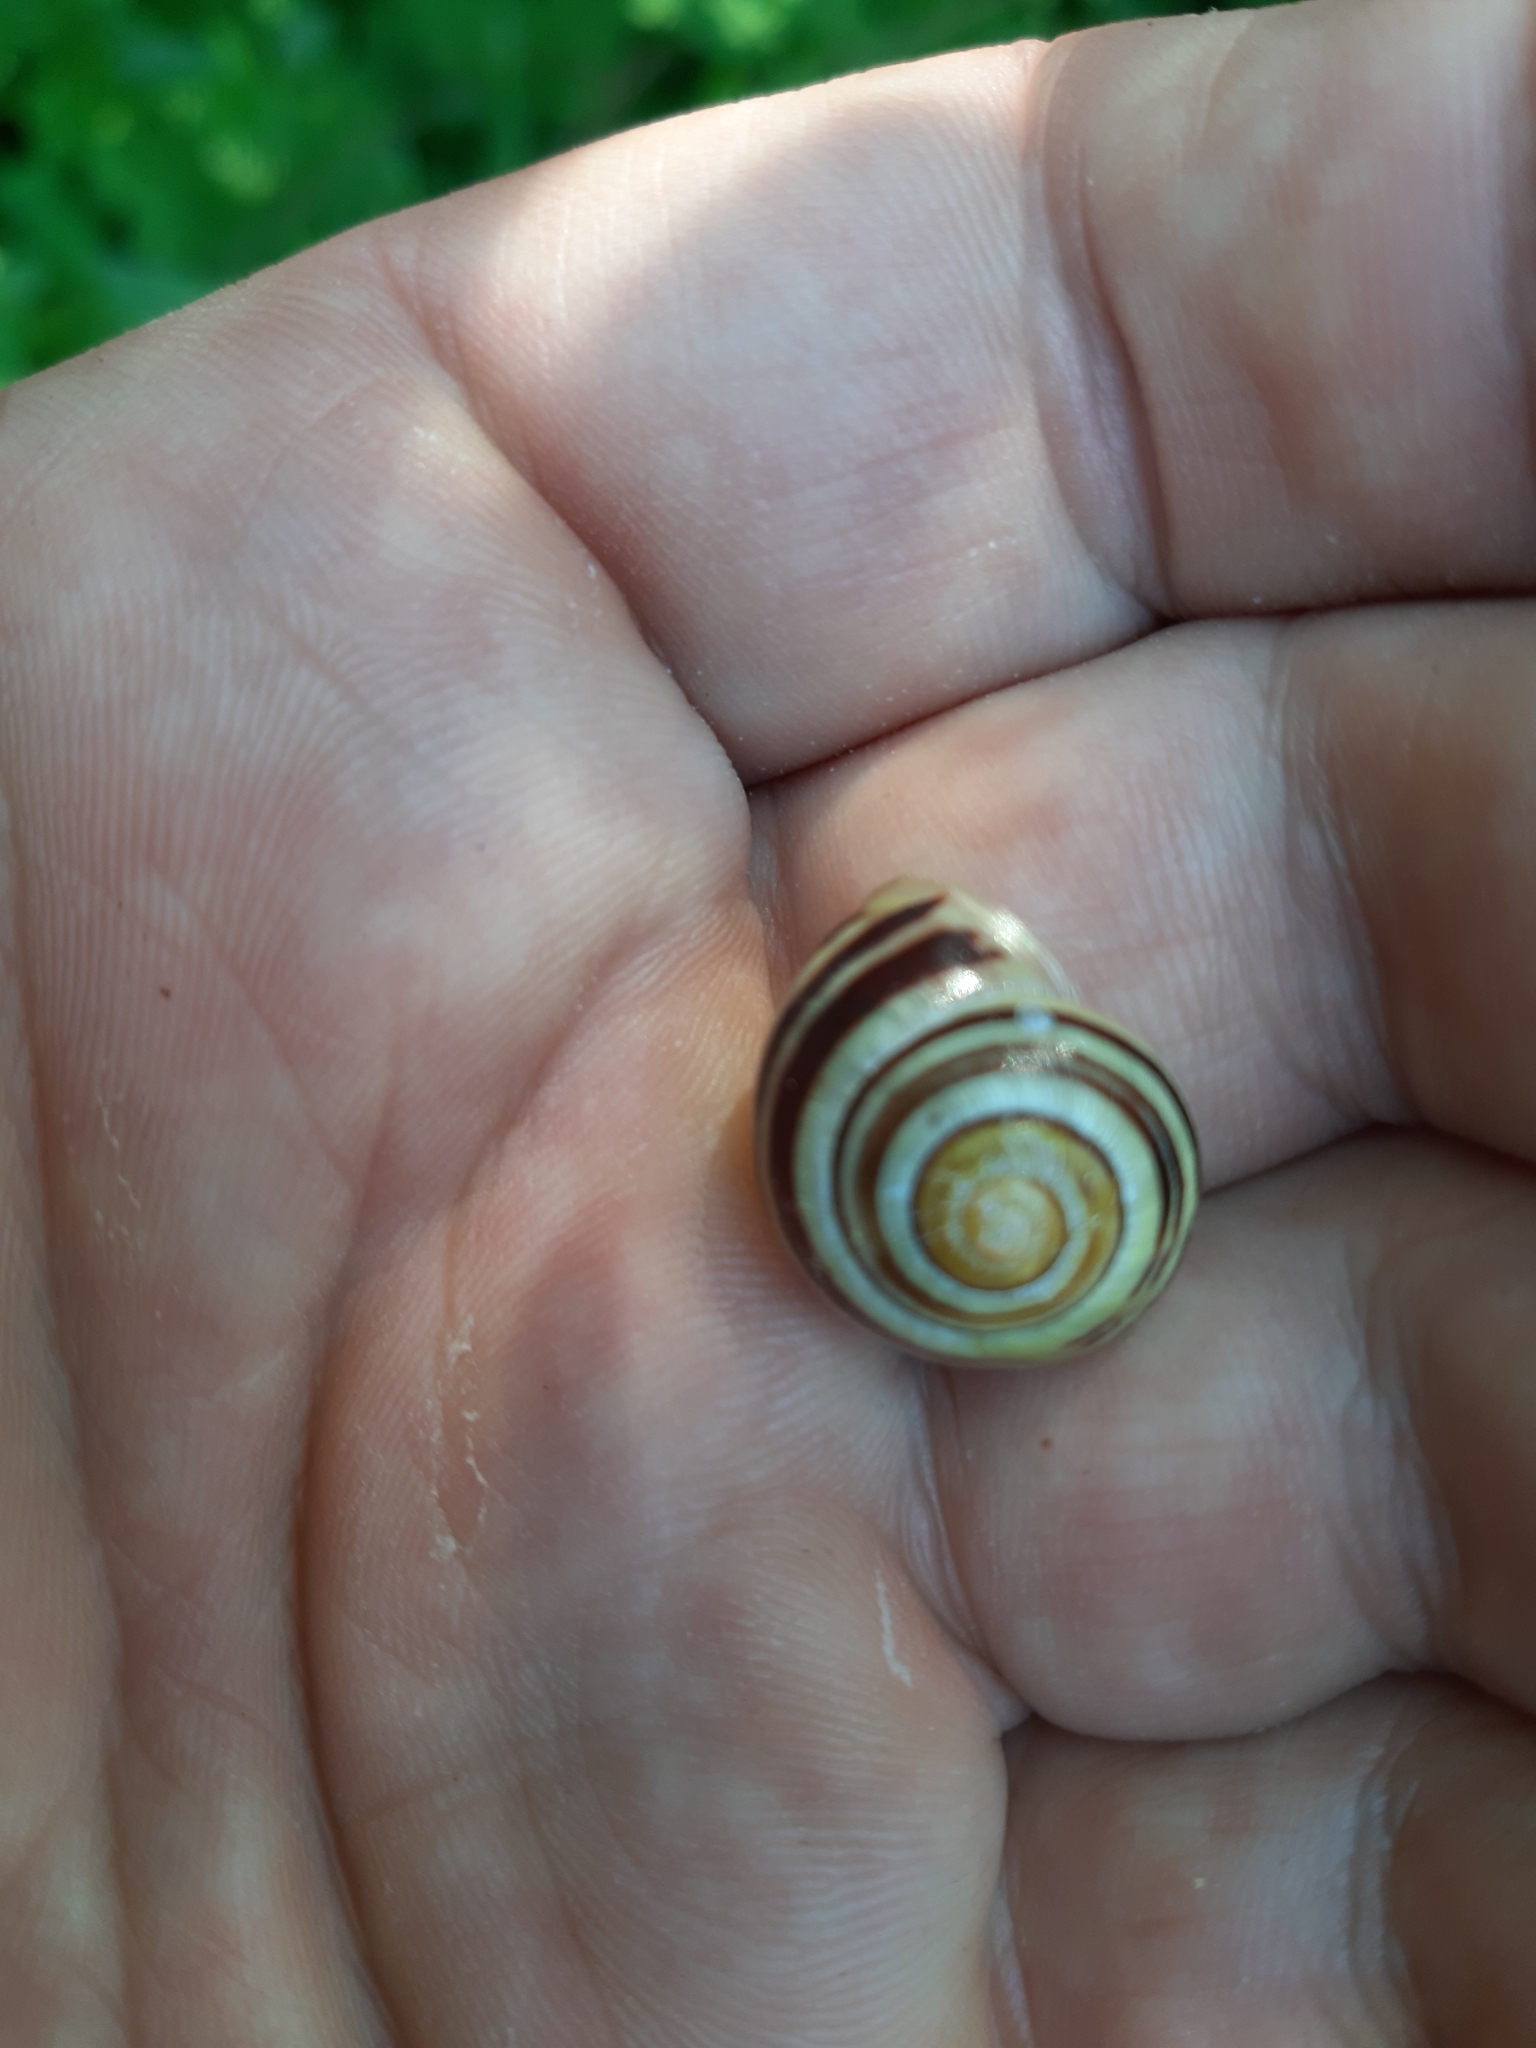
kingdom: Animalia
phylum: Mollusca
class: Gastropoda
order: Stylommatophora
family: Helicidae
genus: Cepaea
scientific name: Cepaea
